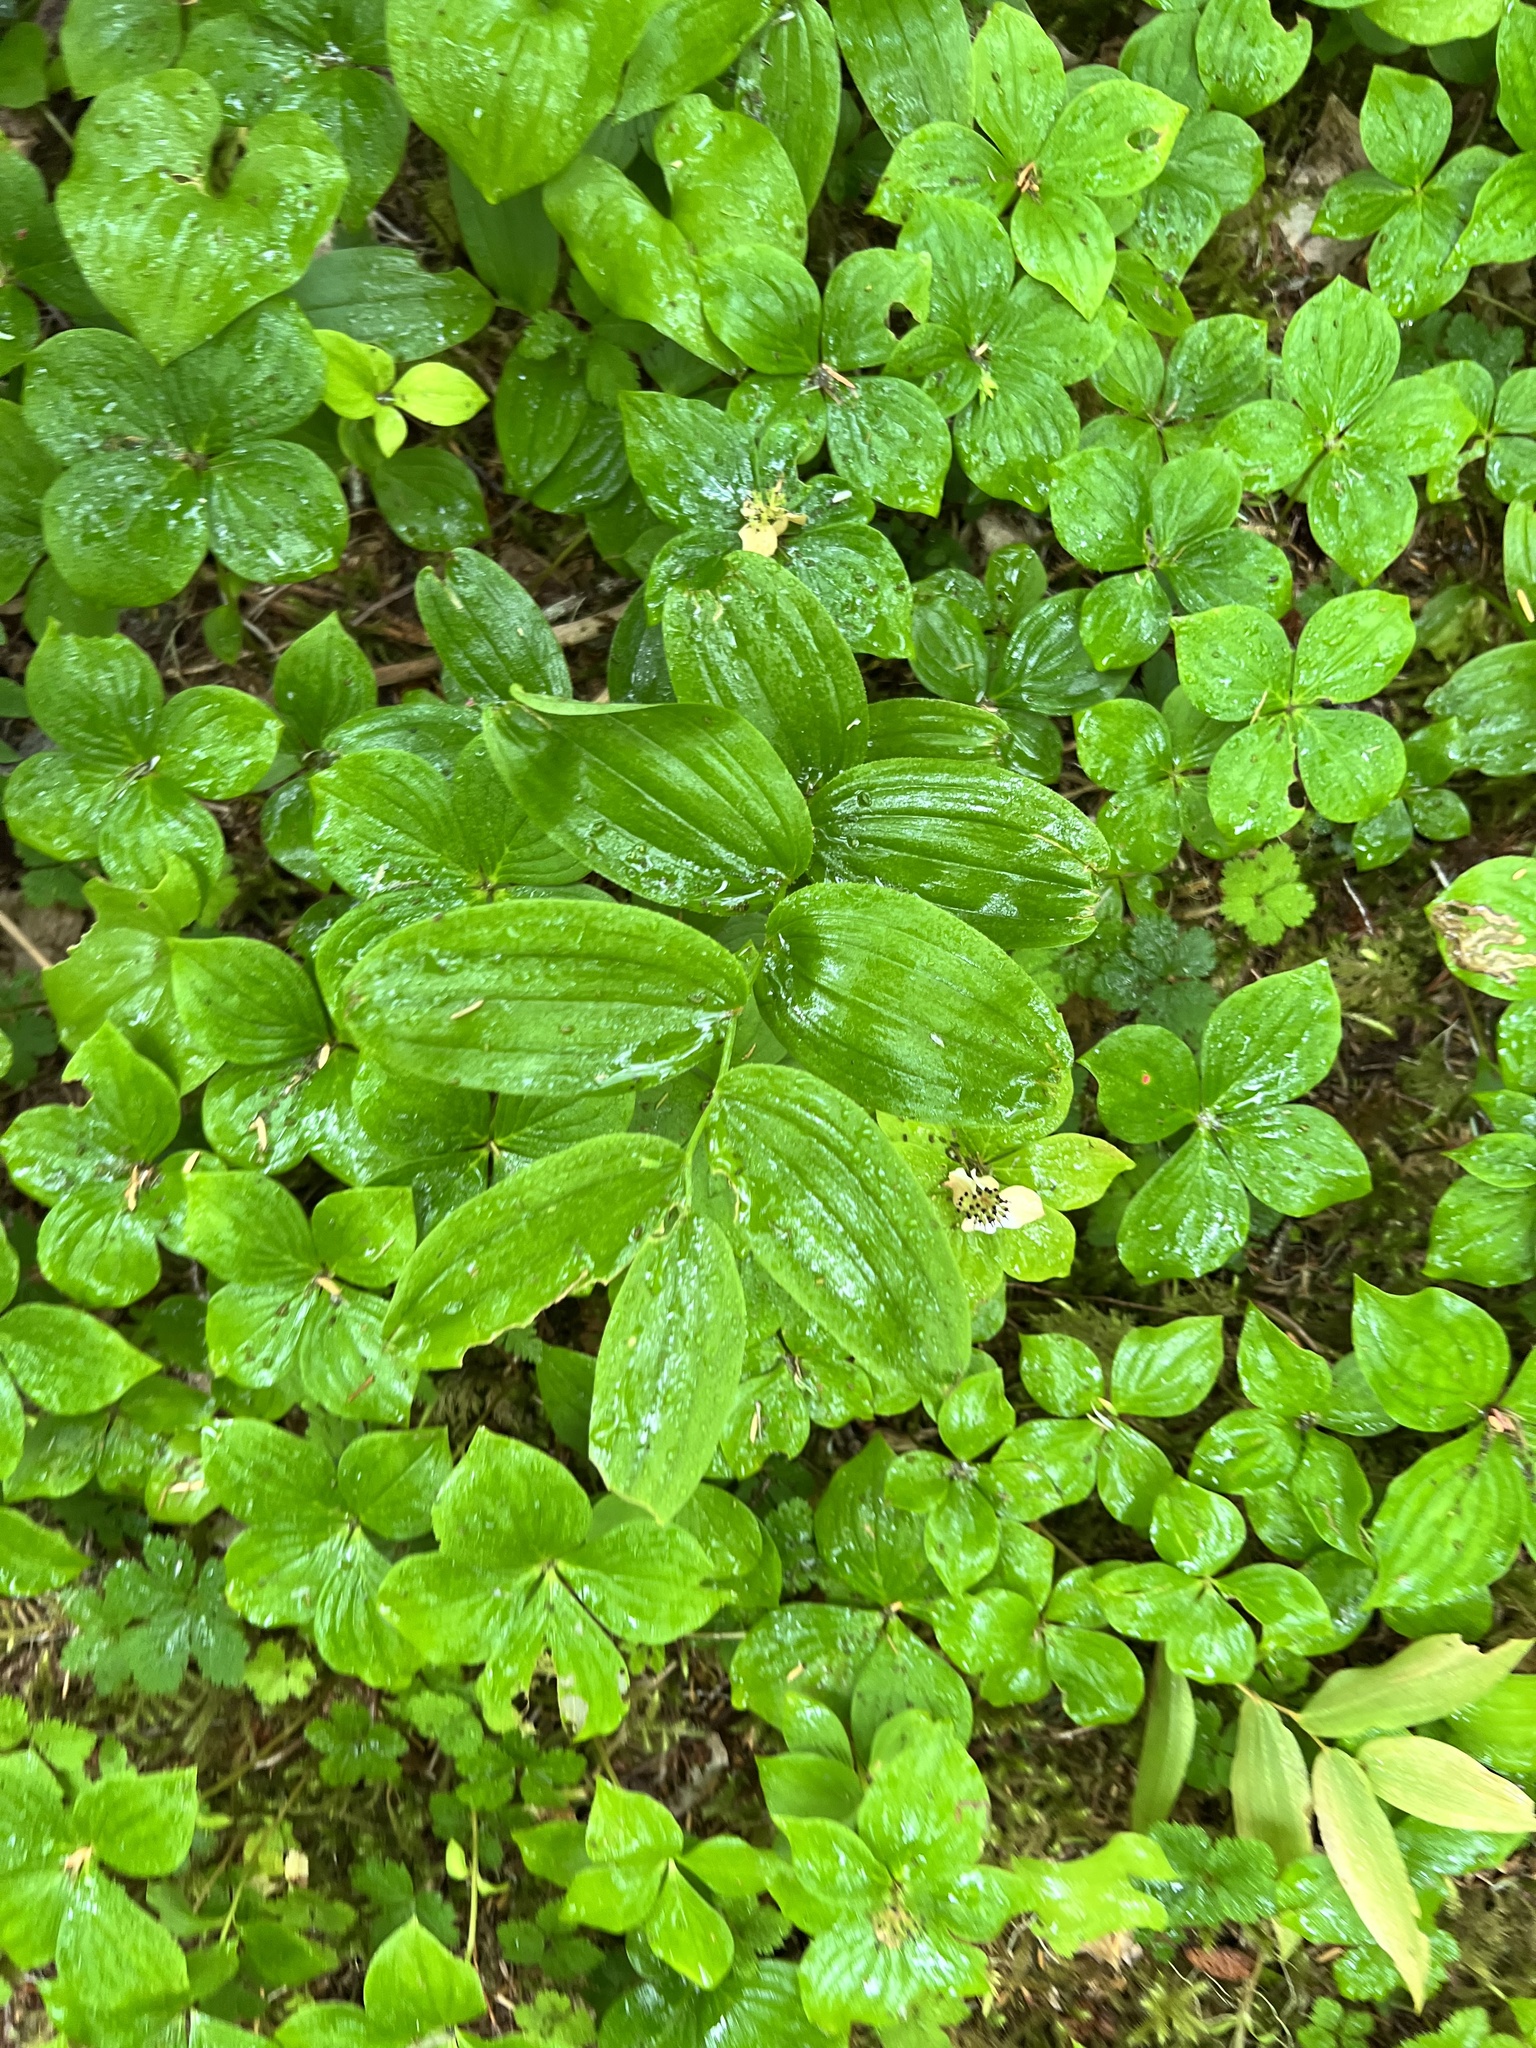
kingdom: Plantae
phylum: Tracheophyta
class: Liliopsida
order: Liliales
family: Liliaceae
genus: Streptopus
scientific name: Streptopus lanceolatus
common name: Rose mandarin
